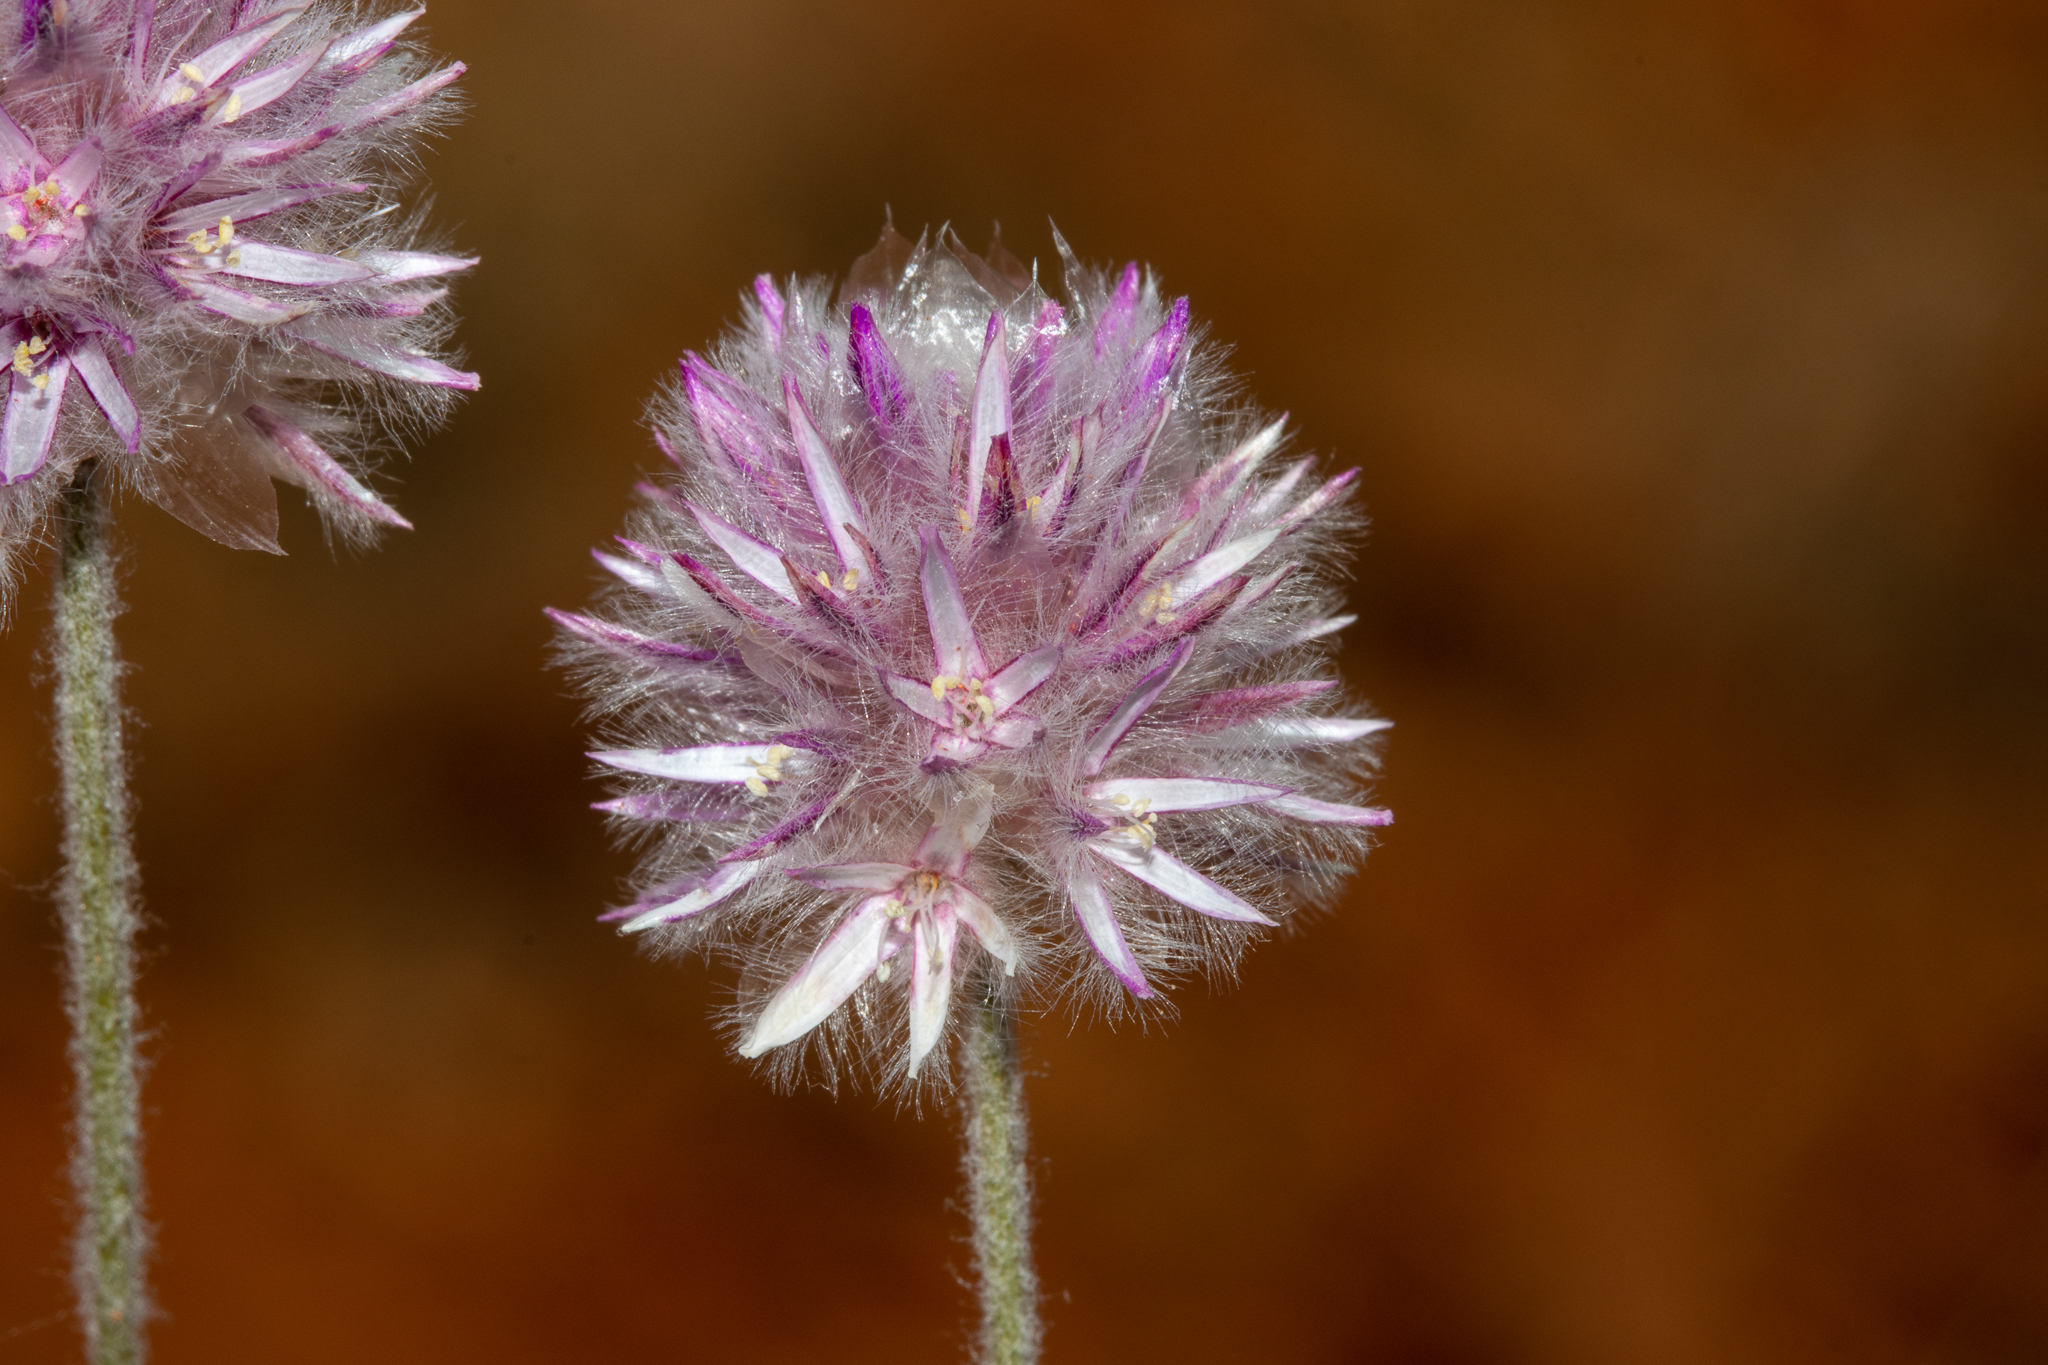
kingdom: Plantae
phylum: Tracheophyta
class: Magnoliopsida
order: Caryophyllales
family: Amaranthaceae
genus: Ptilotus
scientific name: Ptilotus helipteroides
